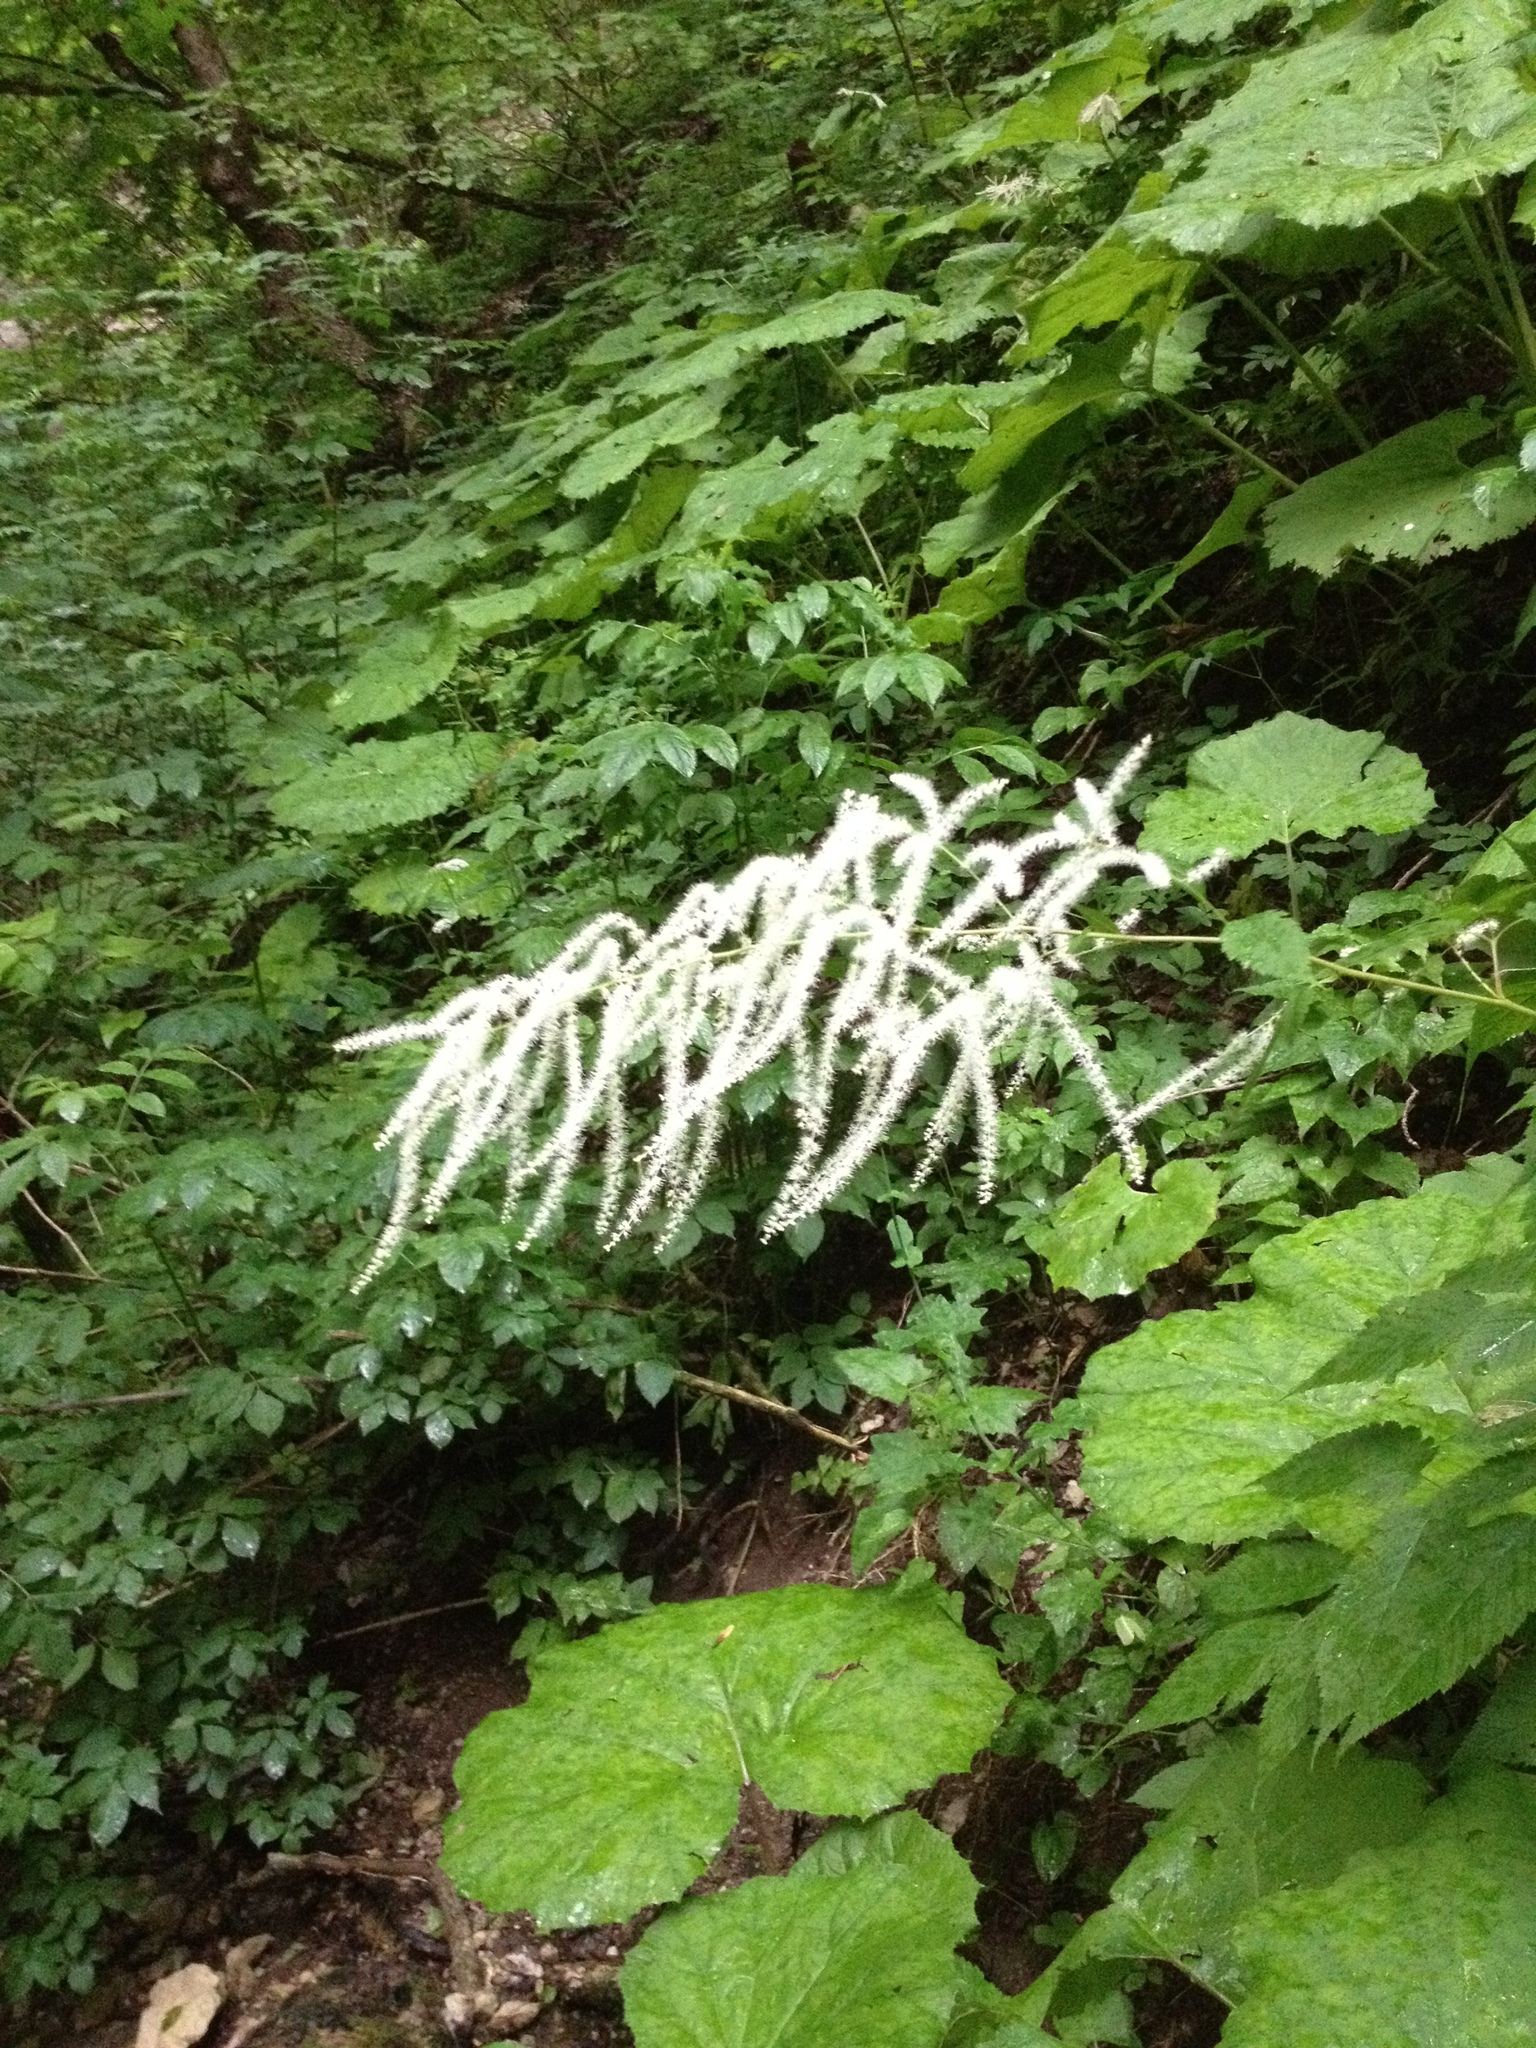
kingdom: Plantae
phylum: Tracheophyta
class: Magnoliopsida
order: Rosales
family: Rosaceae
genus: Aruncus
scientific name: Aruncus dioicus
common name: Buck's-beard
